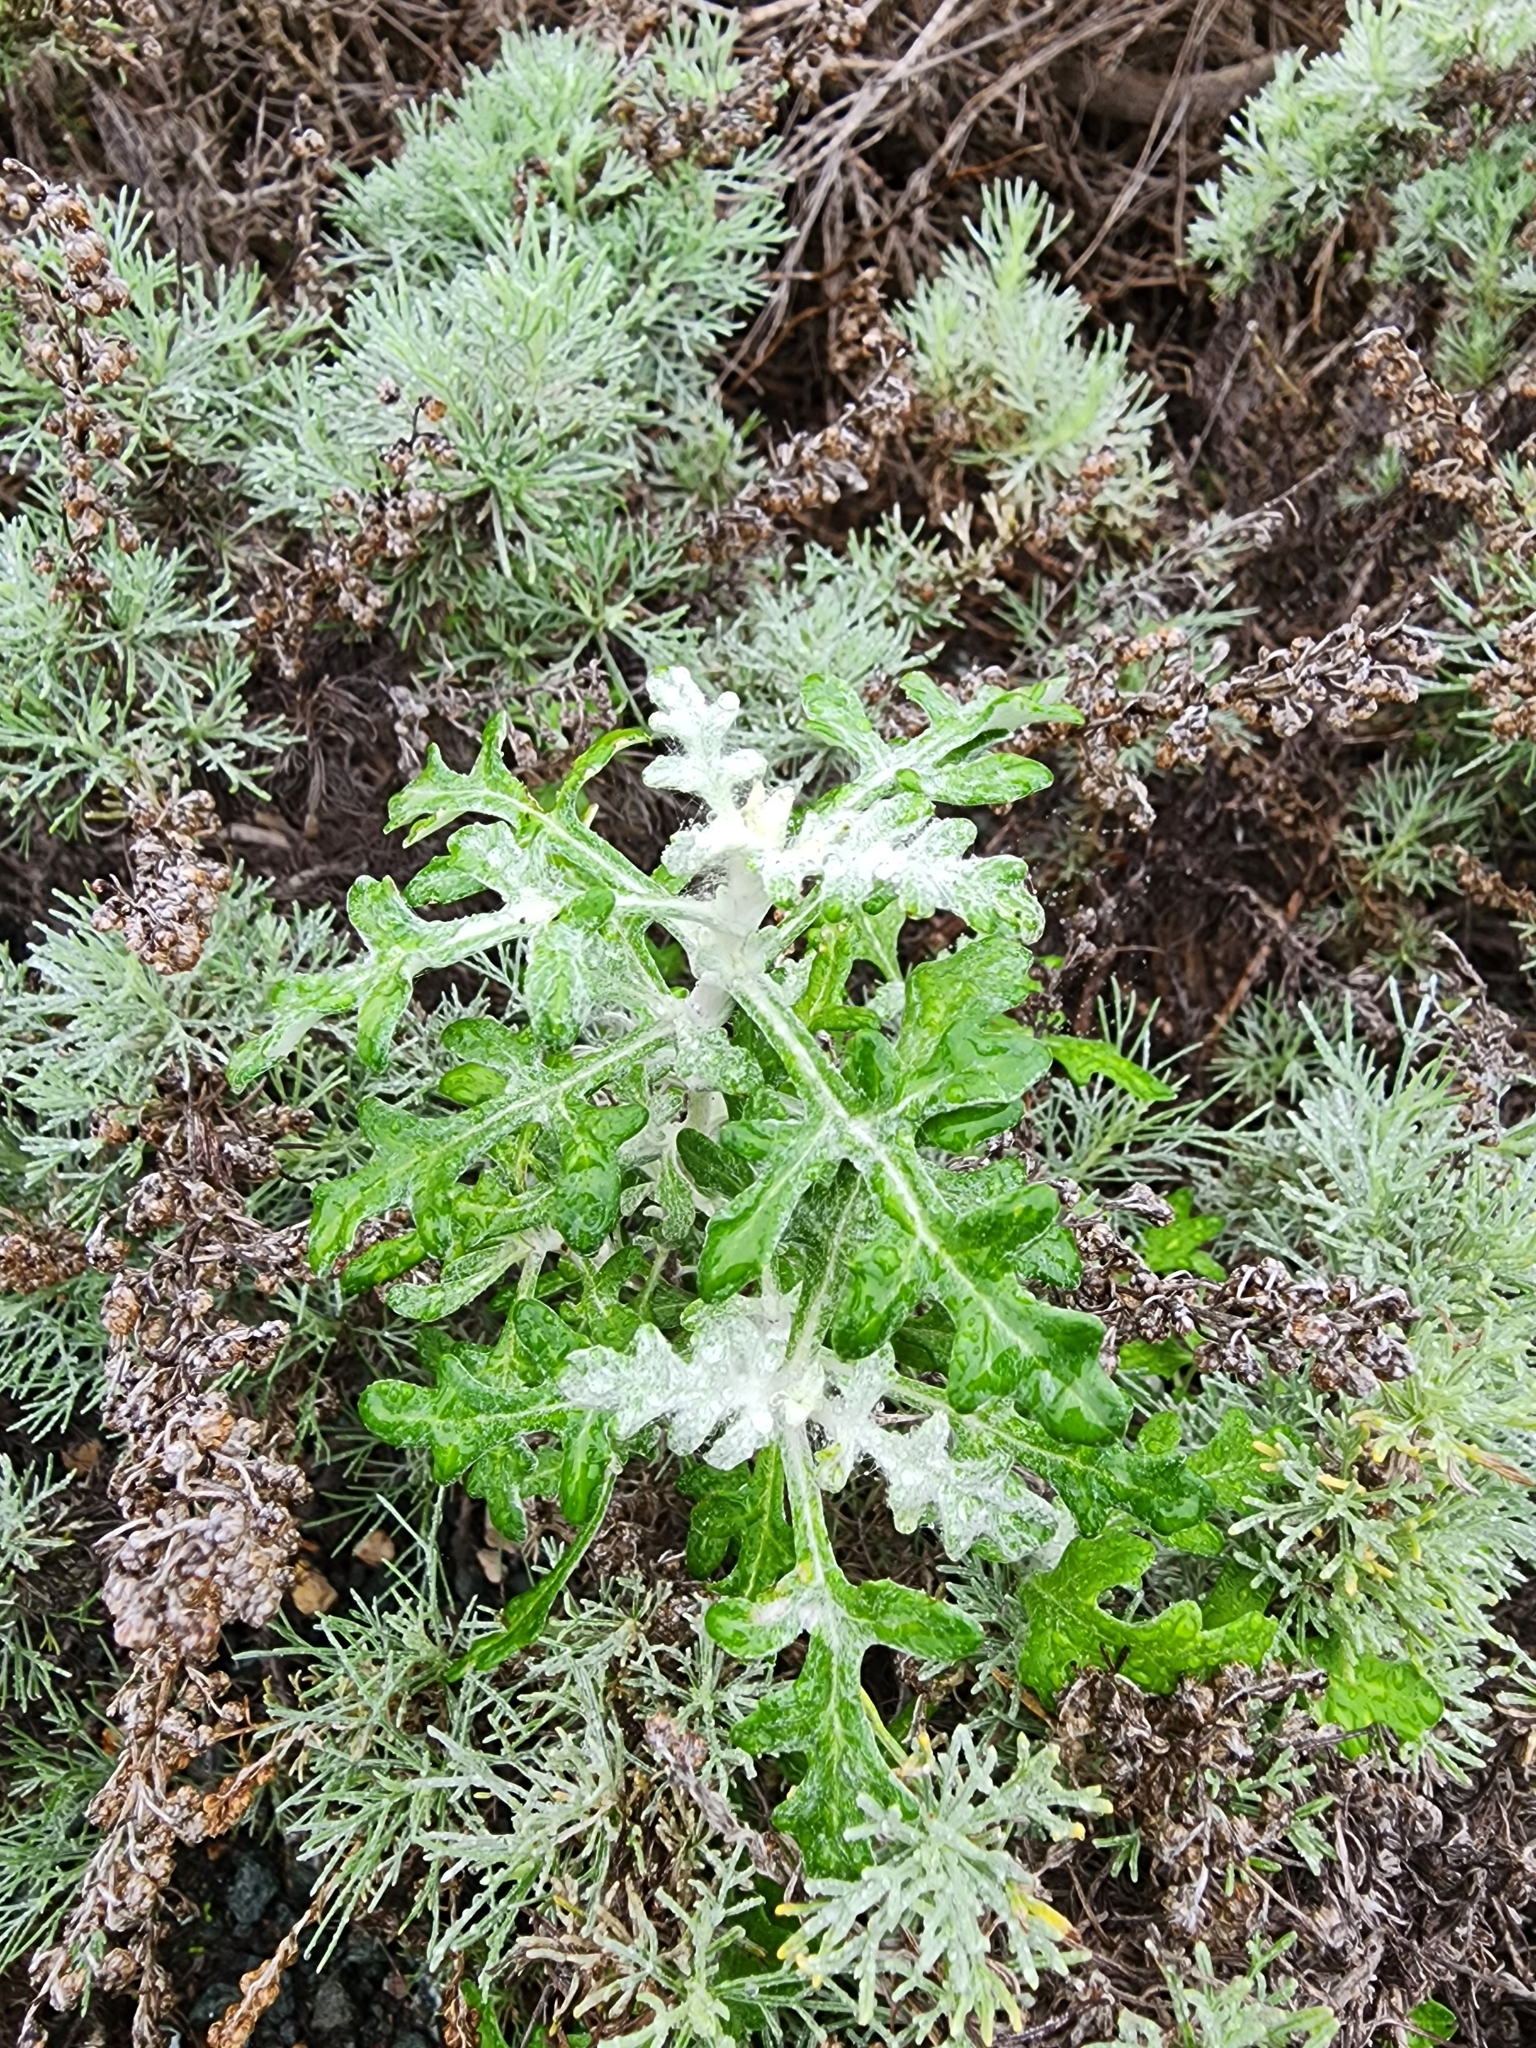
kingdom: Plantae
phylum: Tracheophyta
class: Magnoliopsida
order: Asterales
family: Asteraceae
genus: Eriophyllum
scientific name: Eriophyllum staechadifolium
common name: Lizardtail
